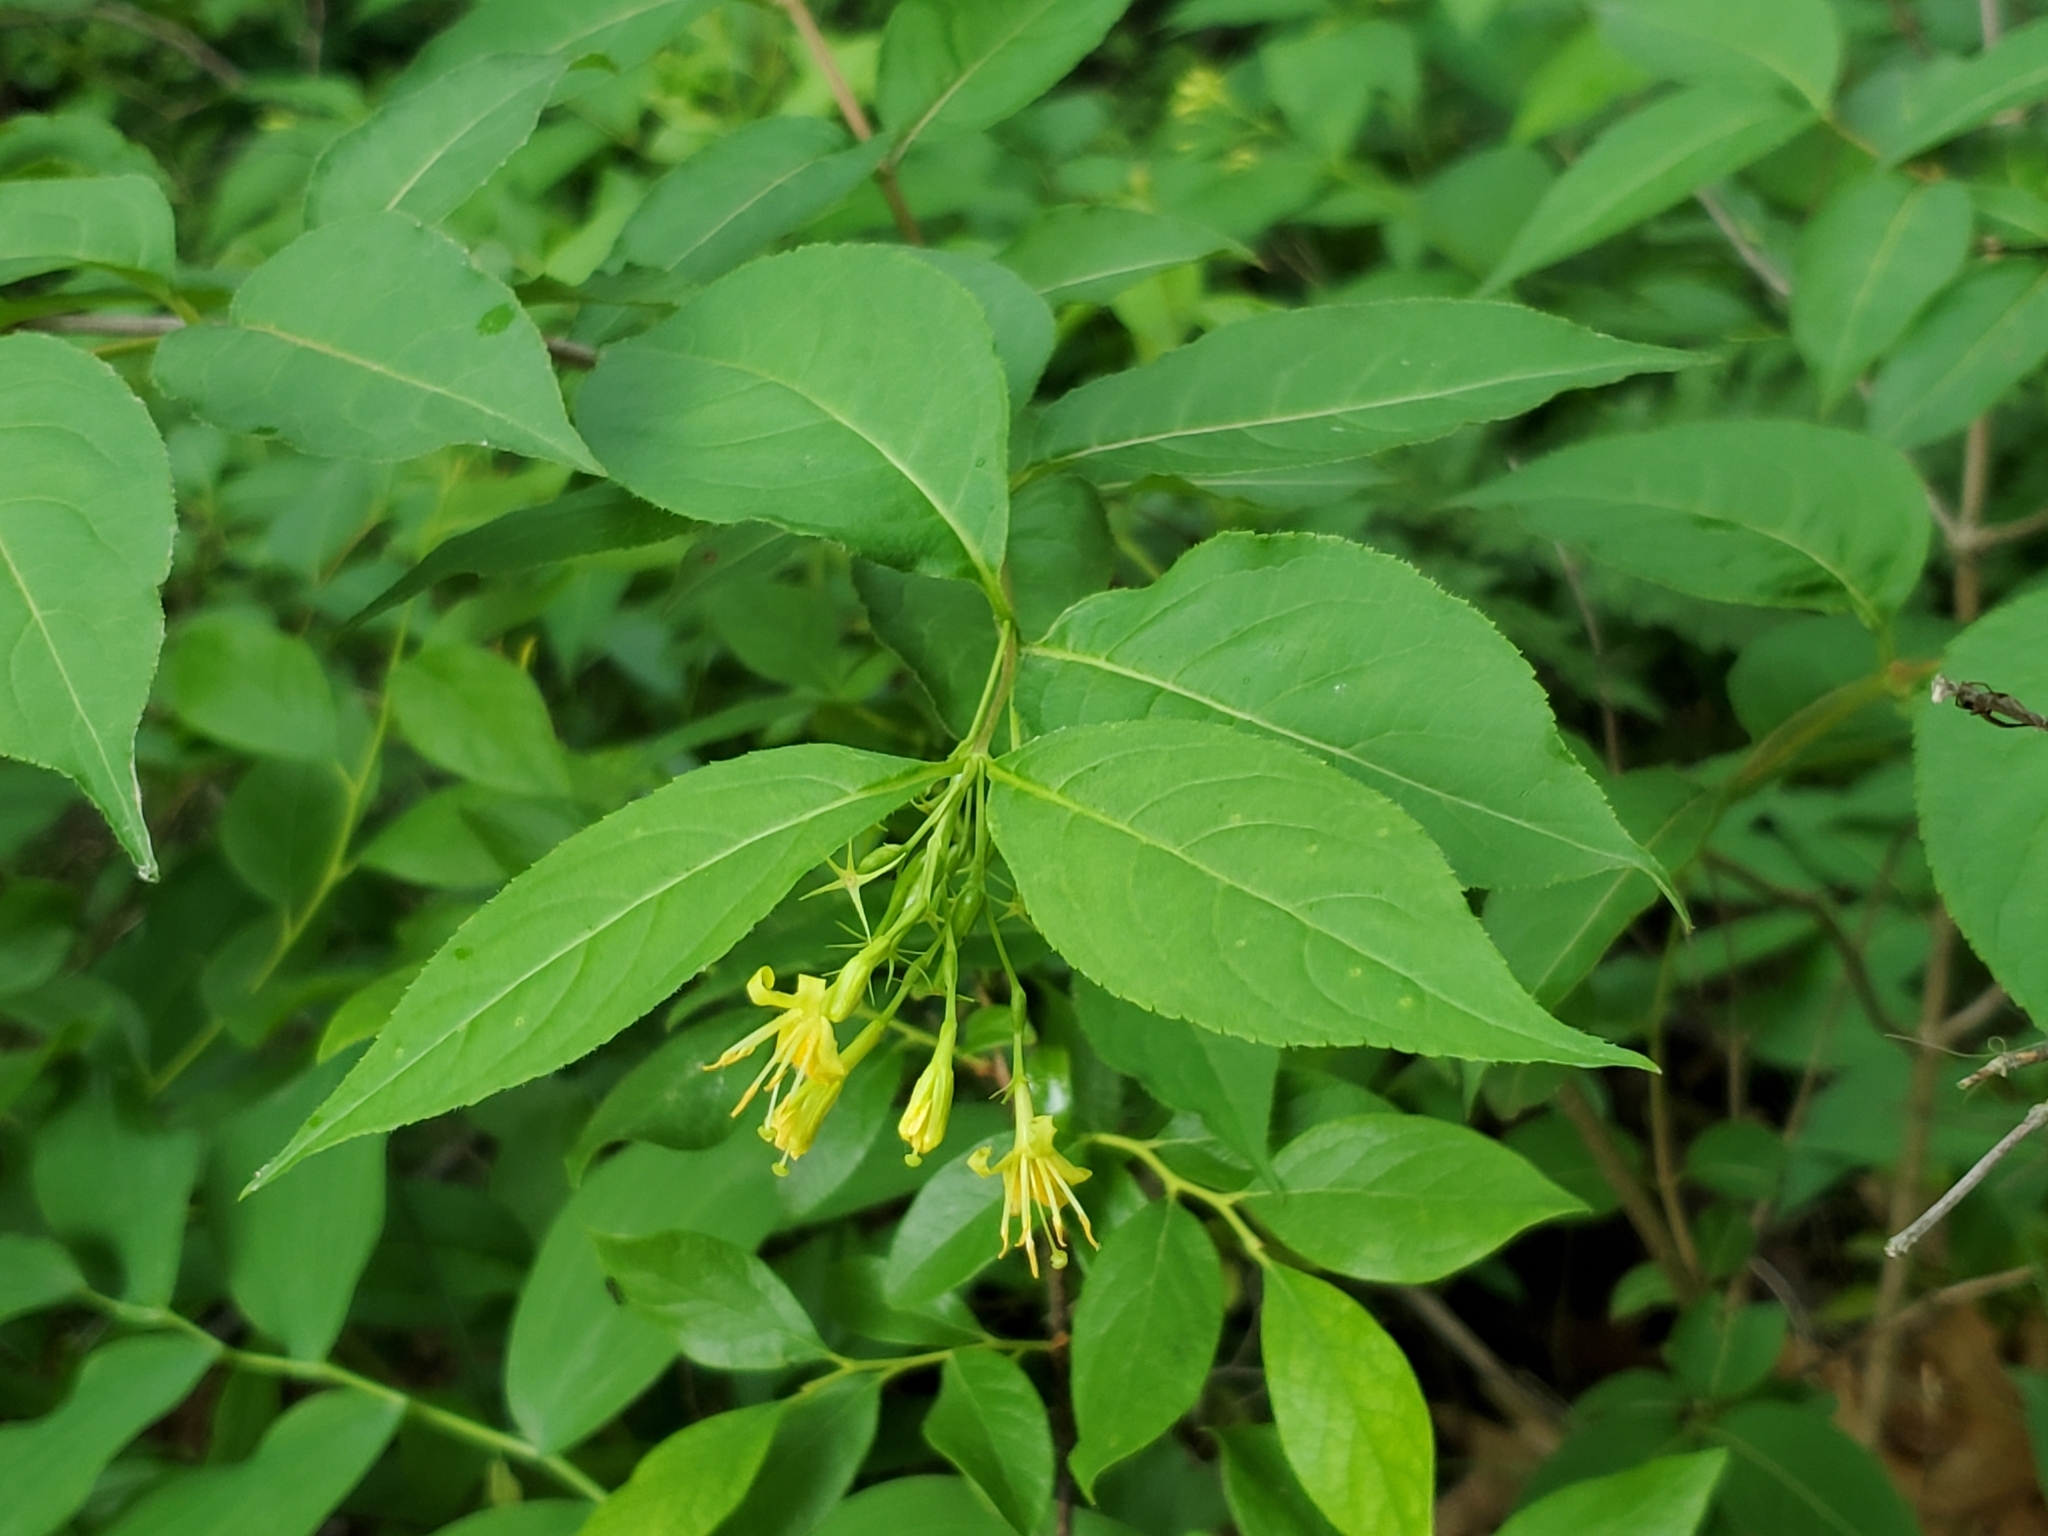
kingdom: Plantae
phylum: Tracheophyta
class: Magnoliopsida
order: Dipsacales
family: Caprifoliaceae
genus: Diervilla
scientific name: Diervilla lonicera
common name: Bush-honeysuckle
